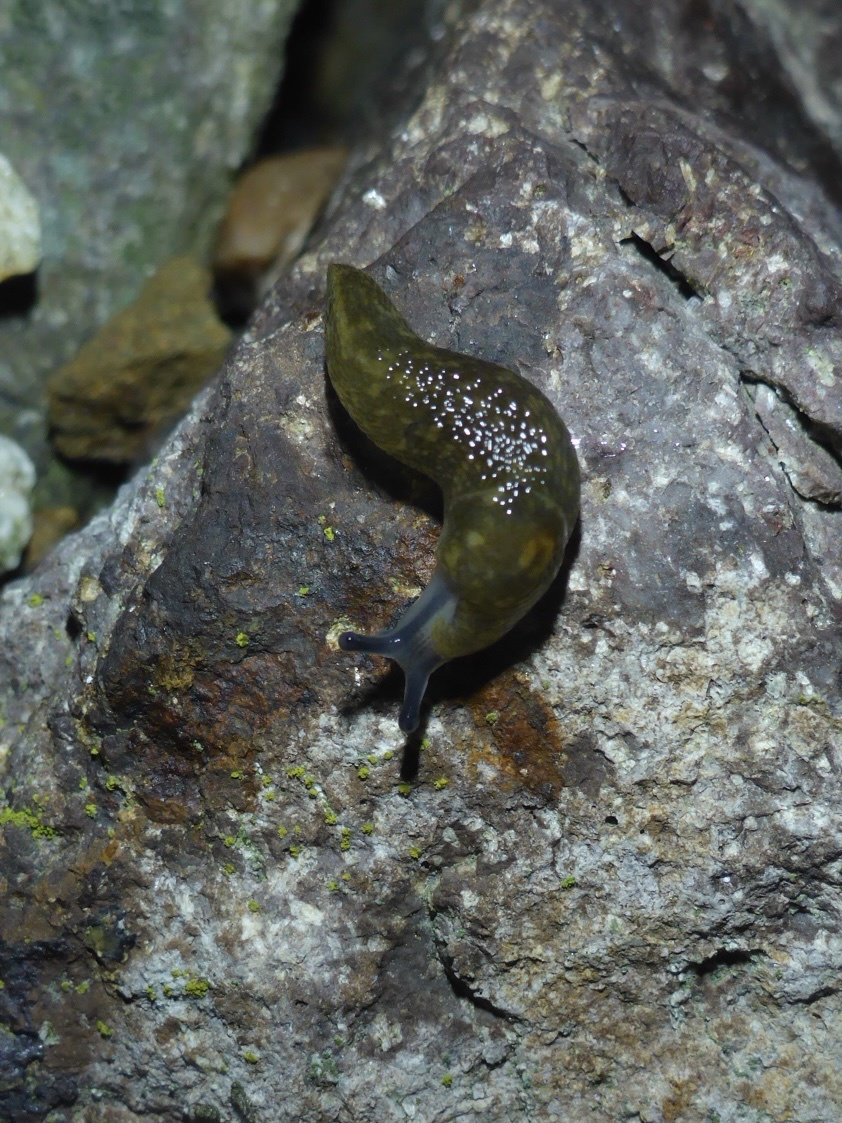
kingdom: Animalia
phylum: Mollusca
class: Gastropoda
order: Stylommatophora
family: Limacidae
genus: Limacus
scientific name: Limacus flavus
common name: Yellow gardenslug
